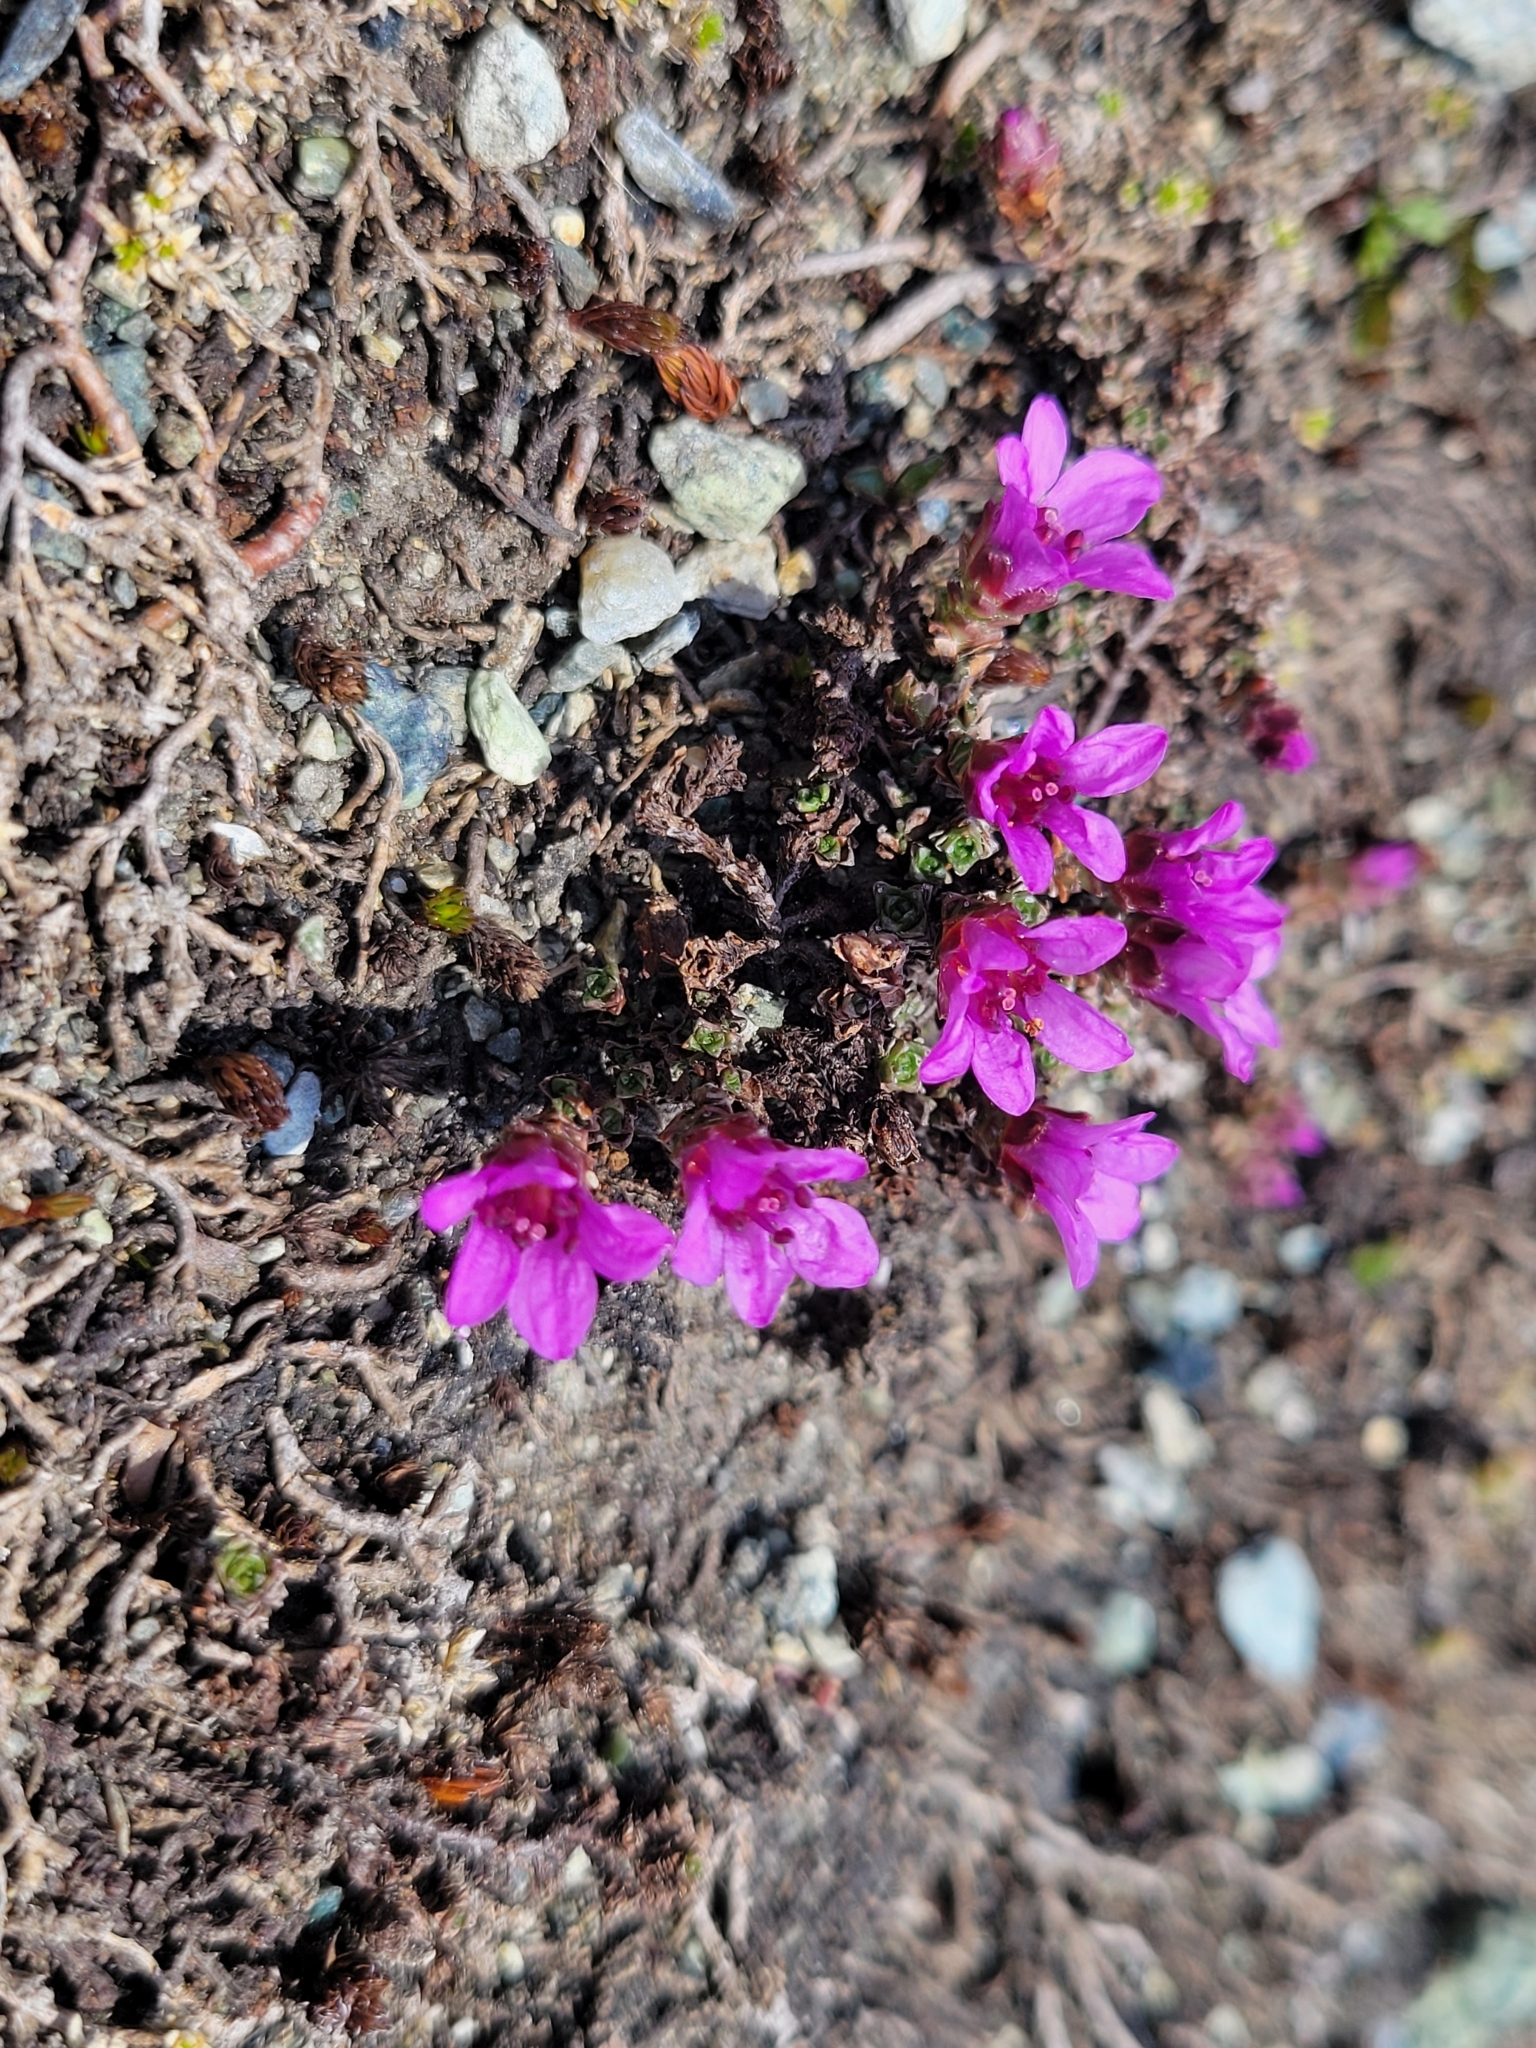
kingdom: Plantae
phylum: Tracheophyta
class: Magnoliopsida
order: Saxifragales
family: Saxifragaceae
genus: Saxifraga
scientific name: Saxifraga oppositifolia
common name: Purple saxifrage
